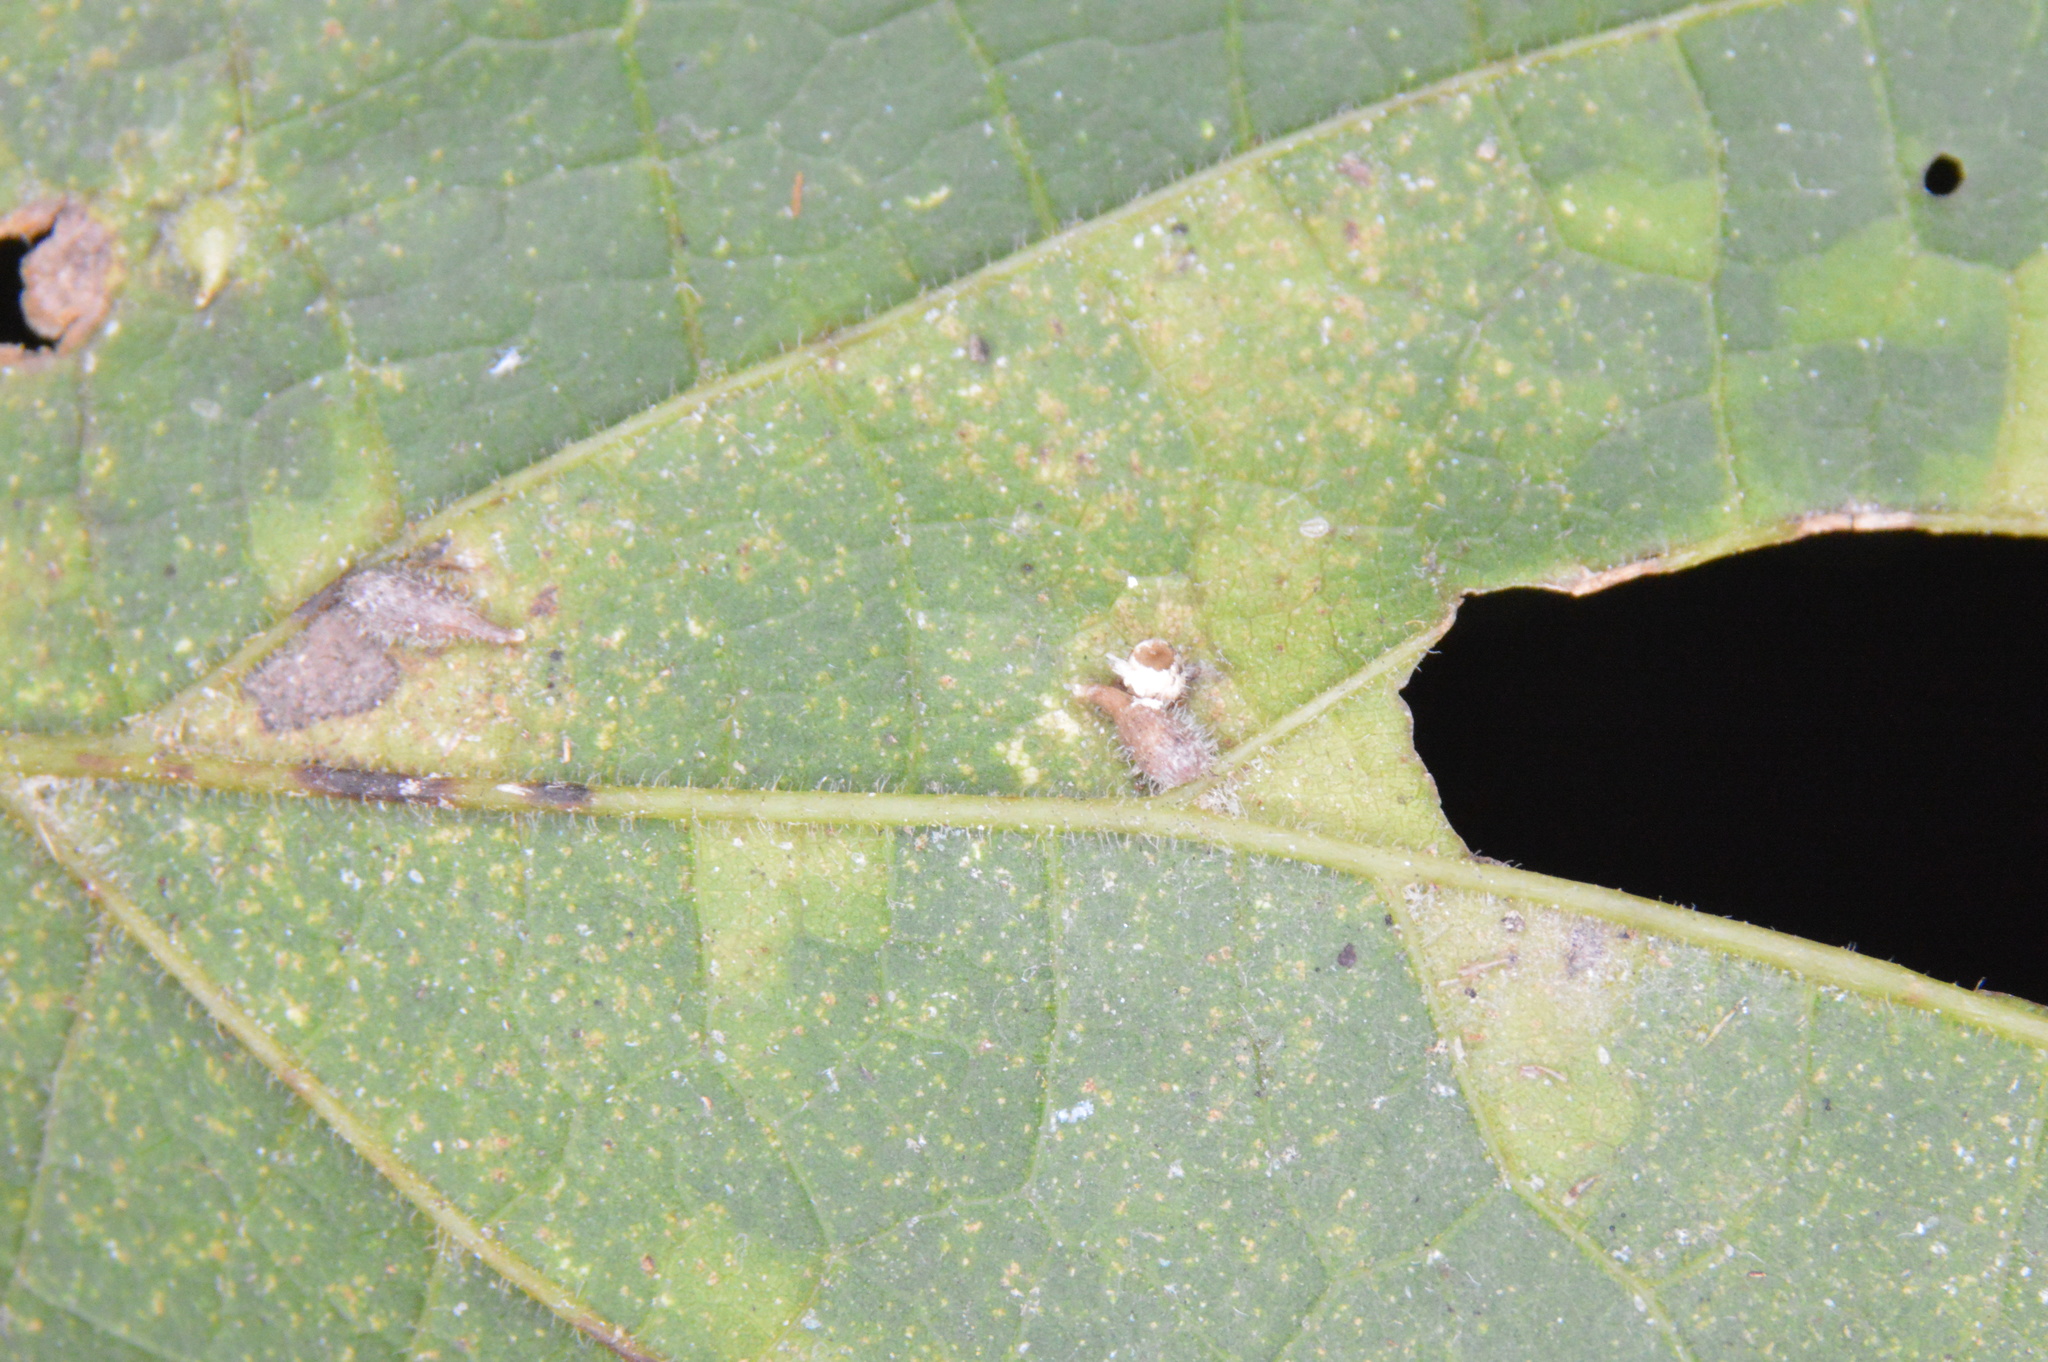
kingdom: Animalia
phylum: Arthropoda
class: Insecta
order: Diptera
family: Cecidomyiidae
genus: Celticecis
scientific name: Celticecis supina
